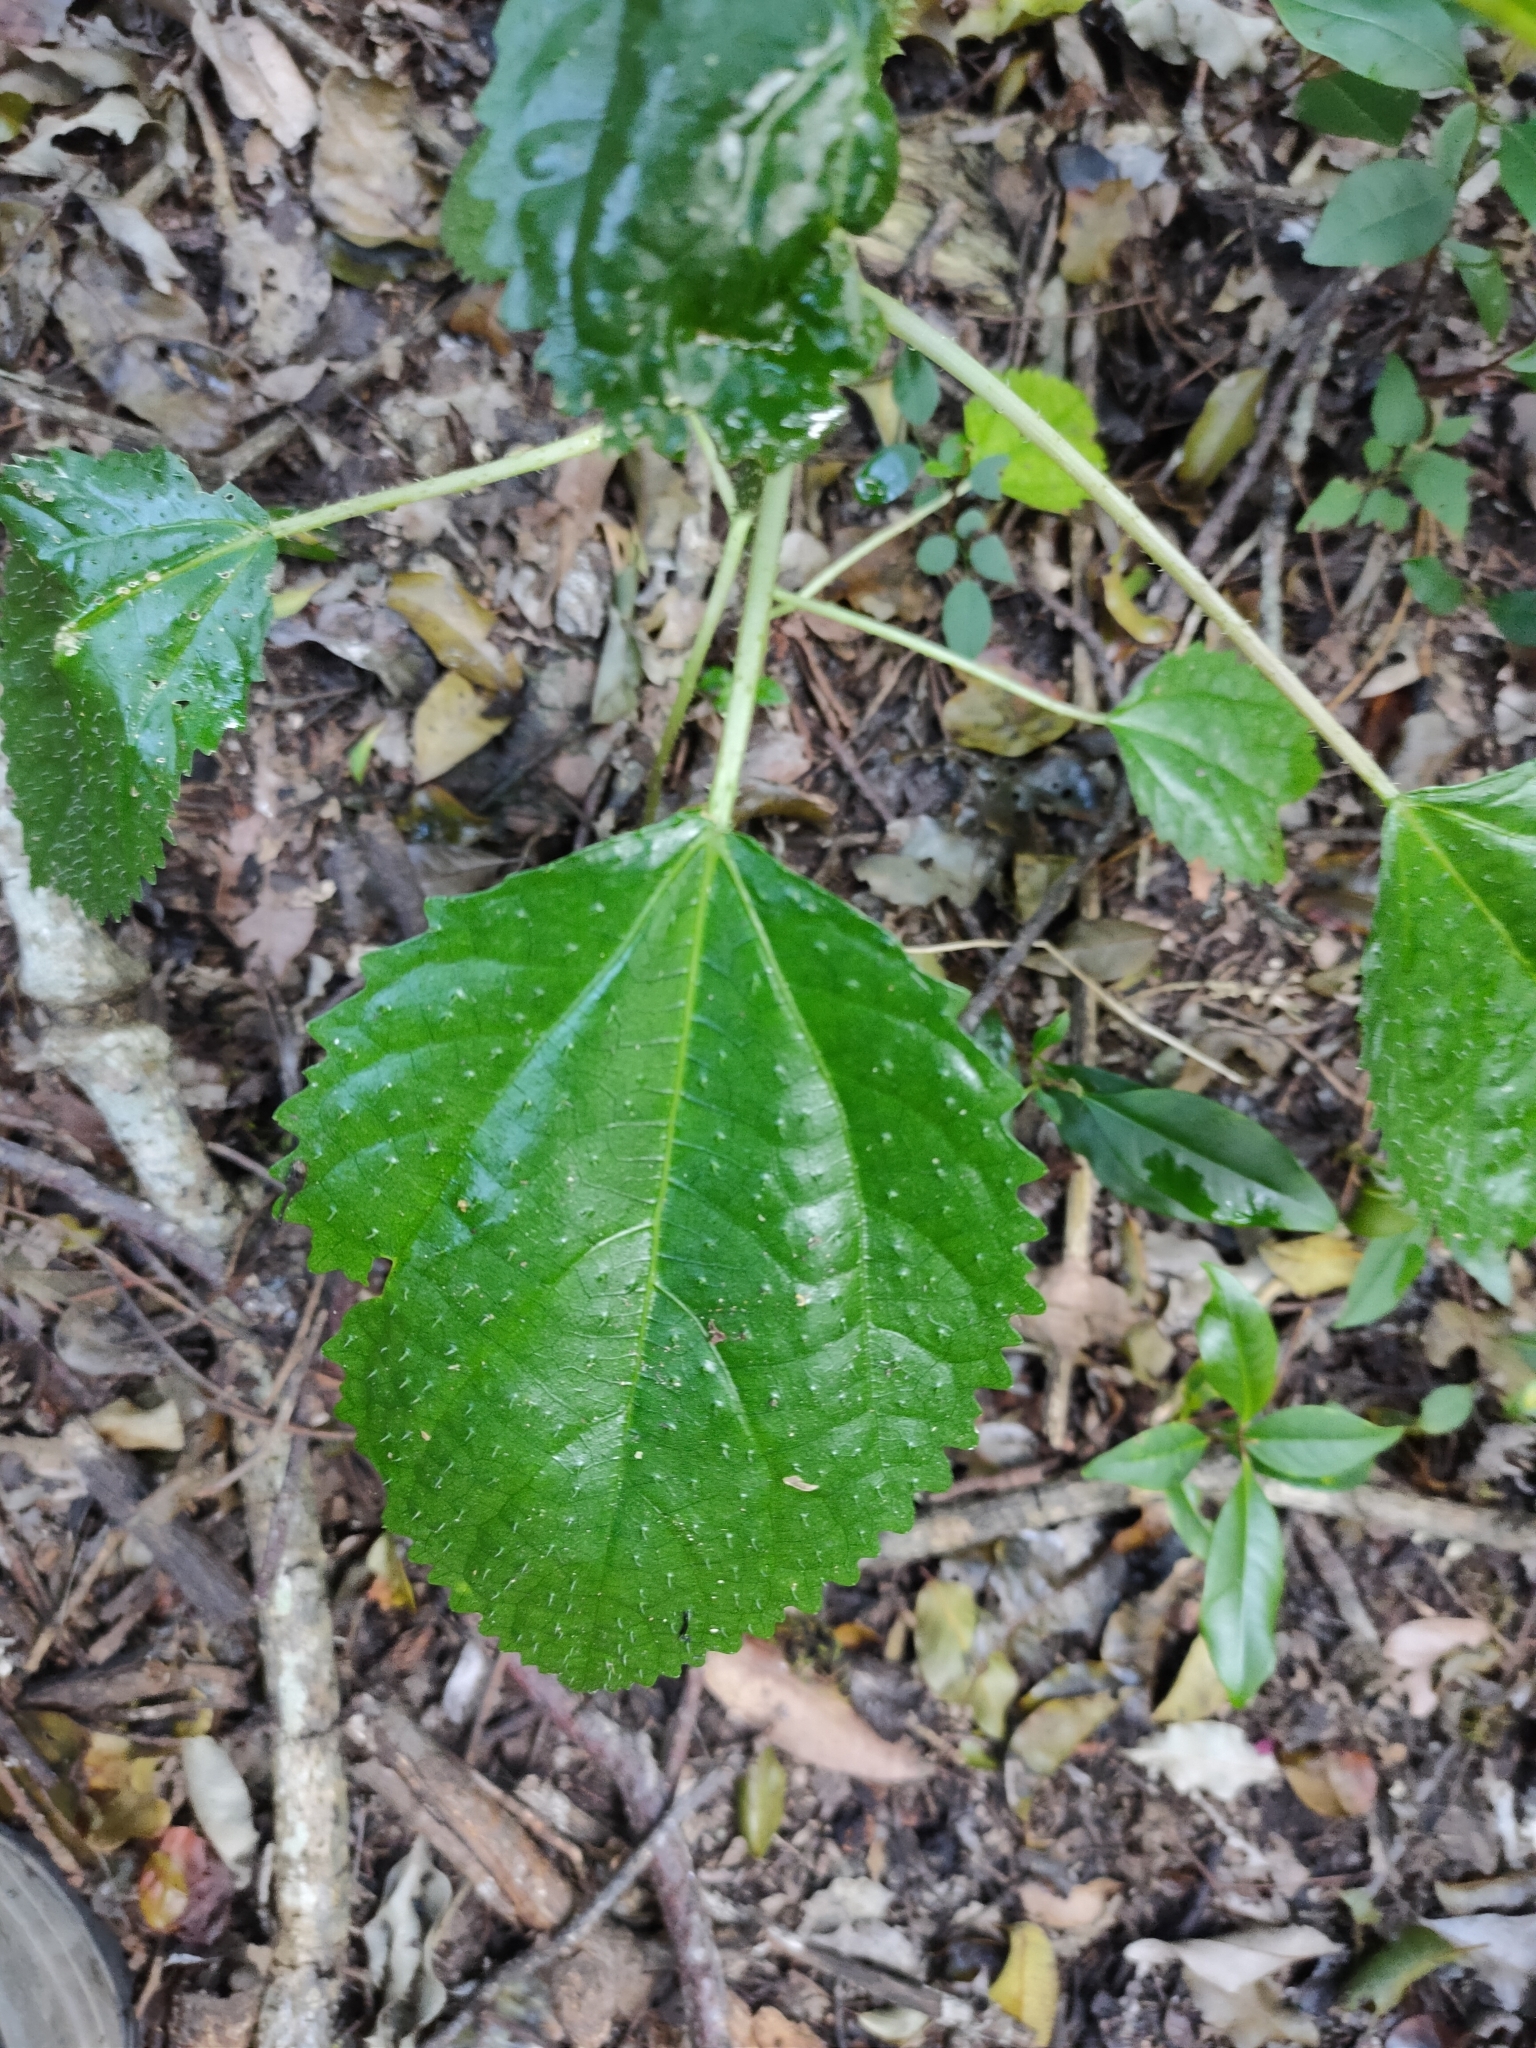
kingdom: Plantae
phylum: Tracheophyta
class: Magnoliopsida
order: Rosales
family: Urticaceae
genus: Dendrocnide
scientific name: Dendrocnide photiniphylla
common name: Shiny-leaved stinging tree
